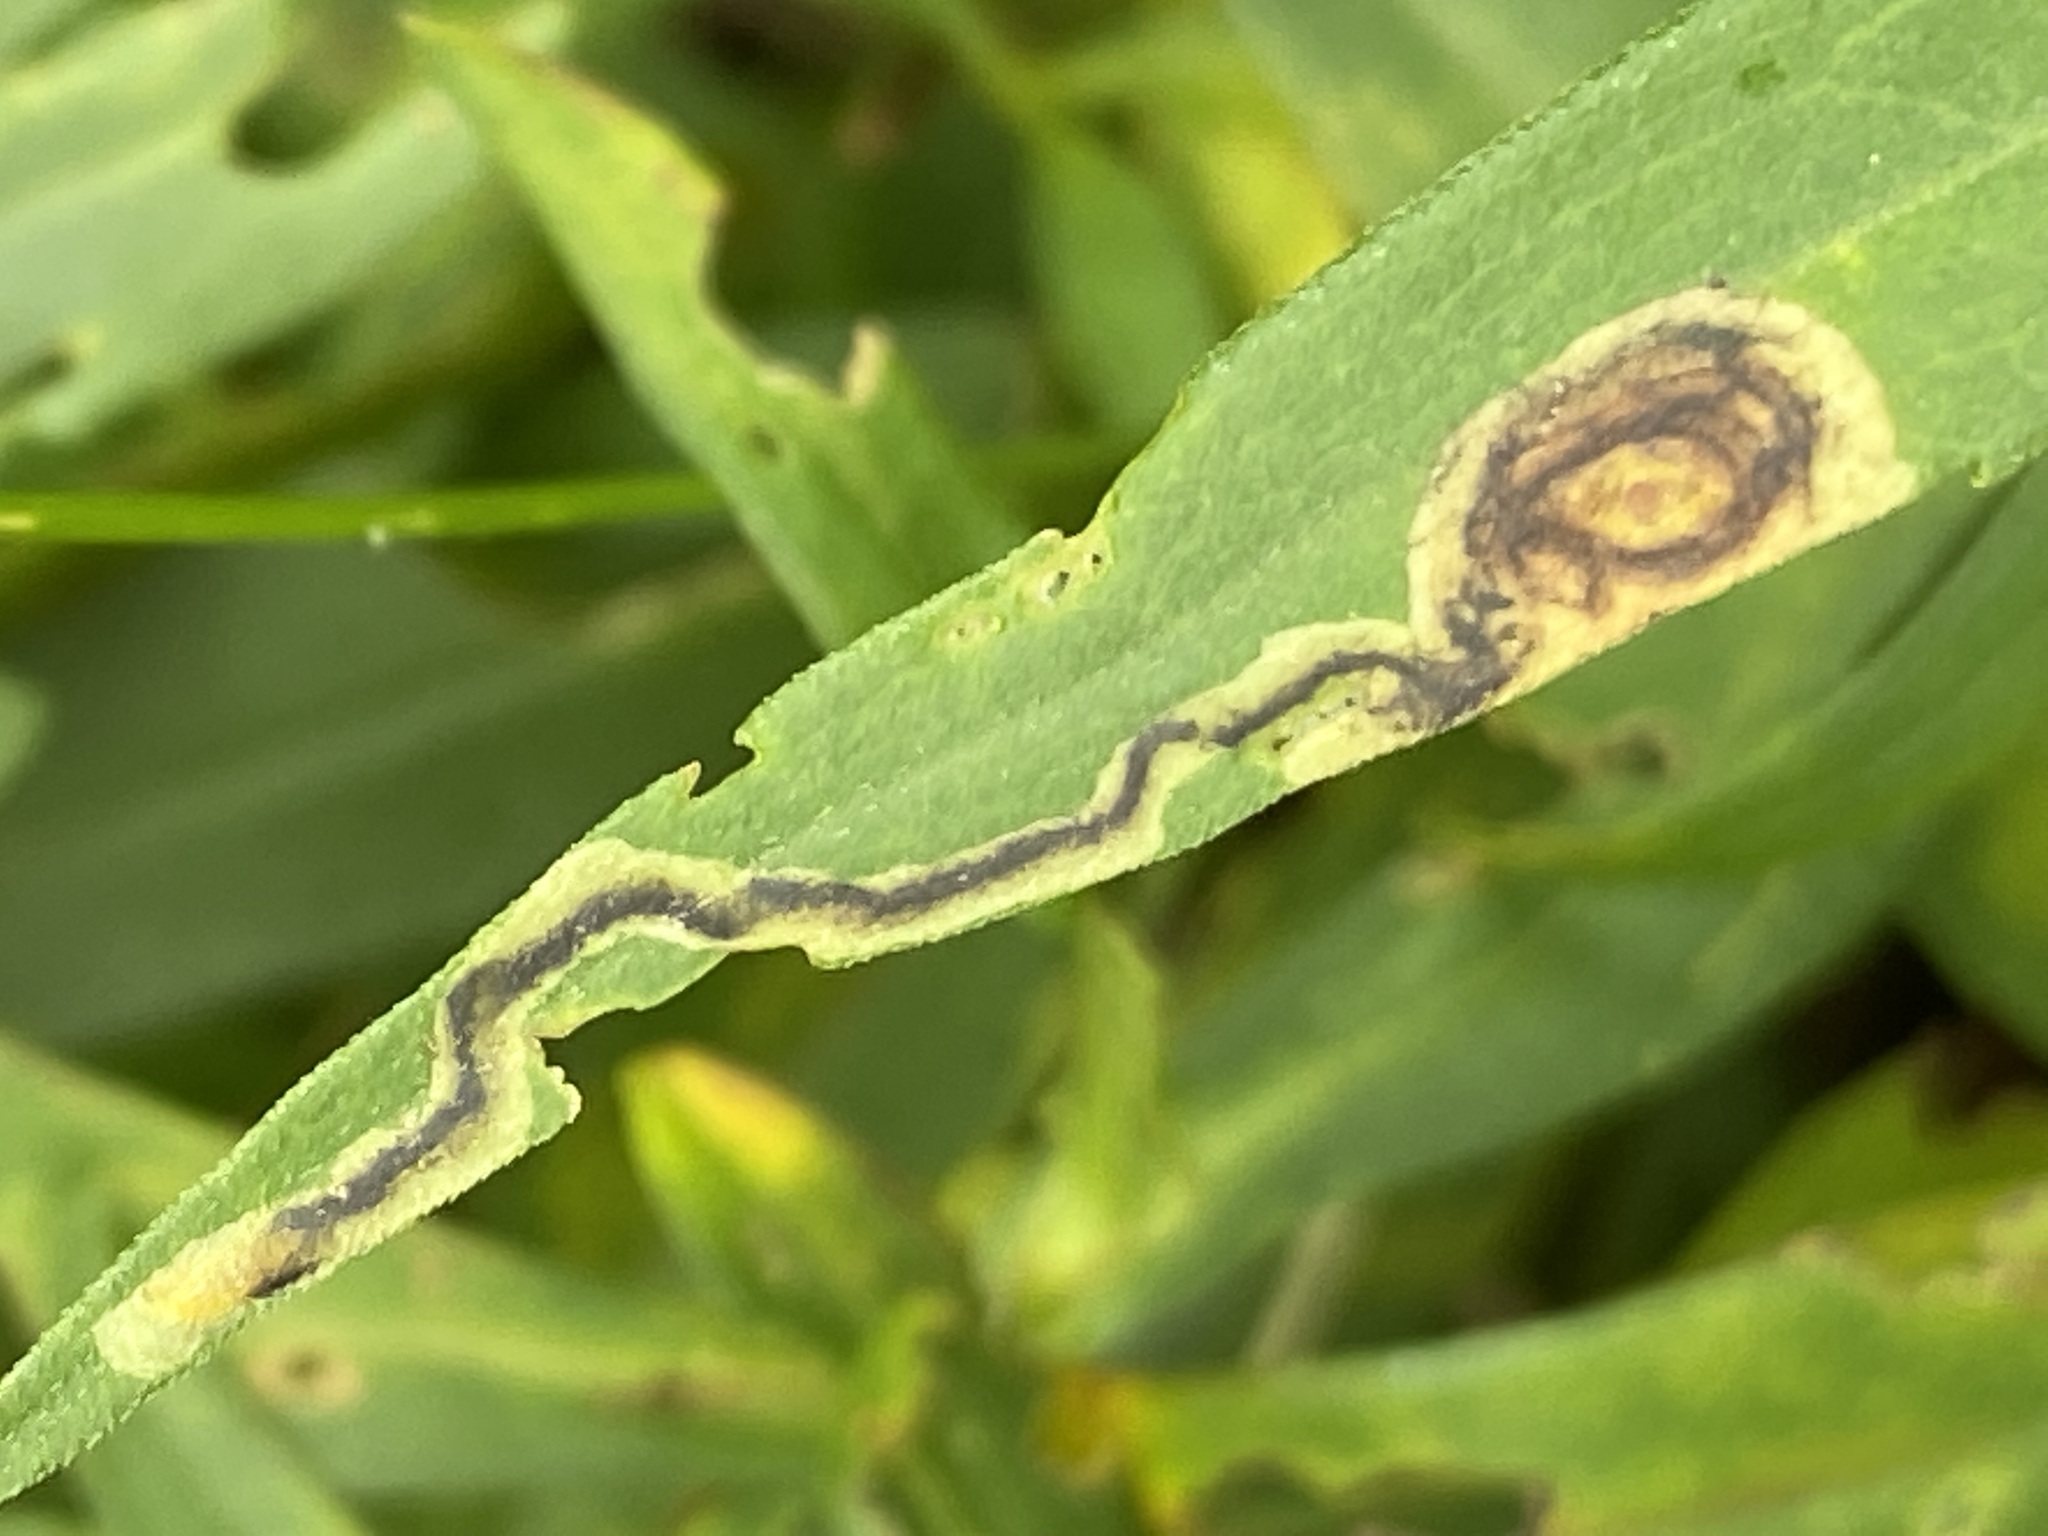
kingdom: Animalia
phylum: Arthropoda
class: Insecta
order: Diptera
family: Agromyzidae
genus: Liriomyza
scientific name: Liriomyza eupatorii
